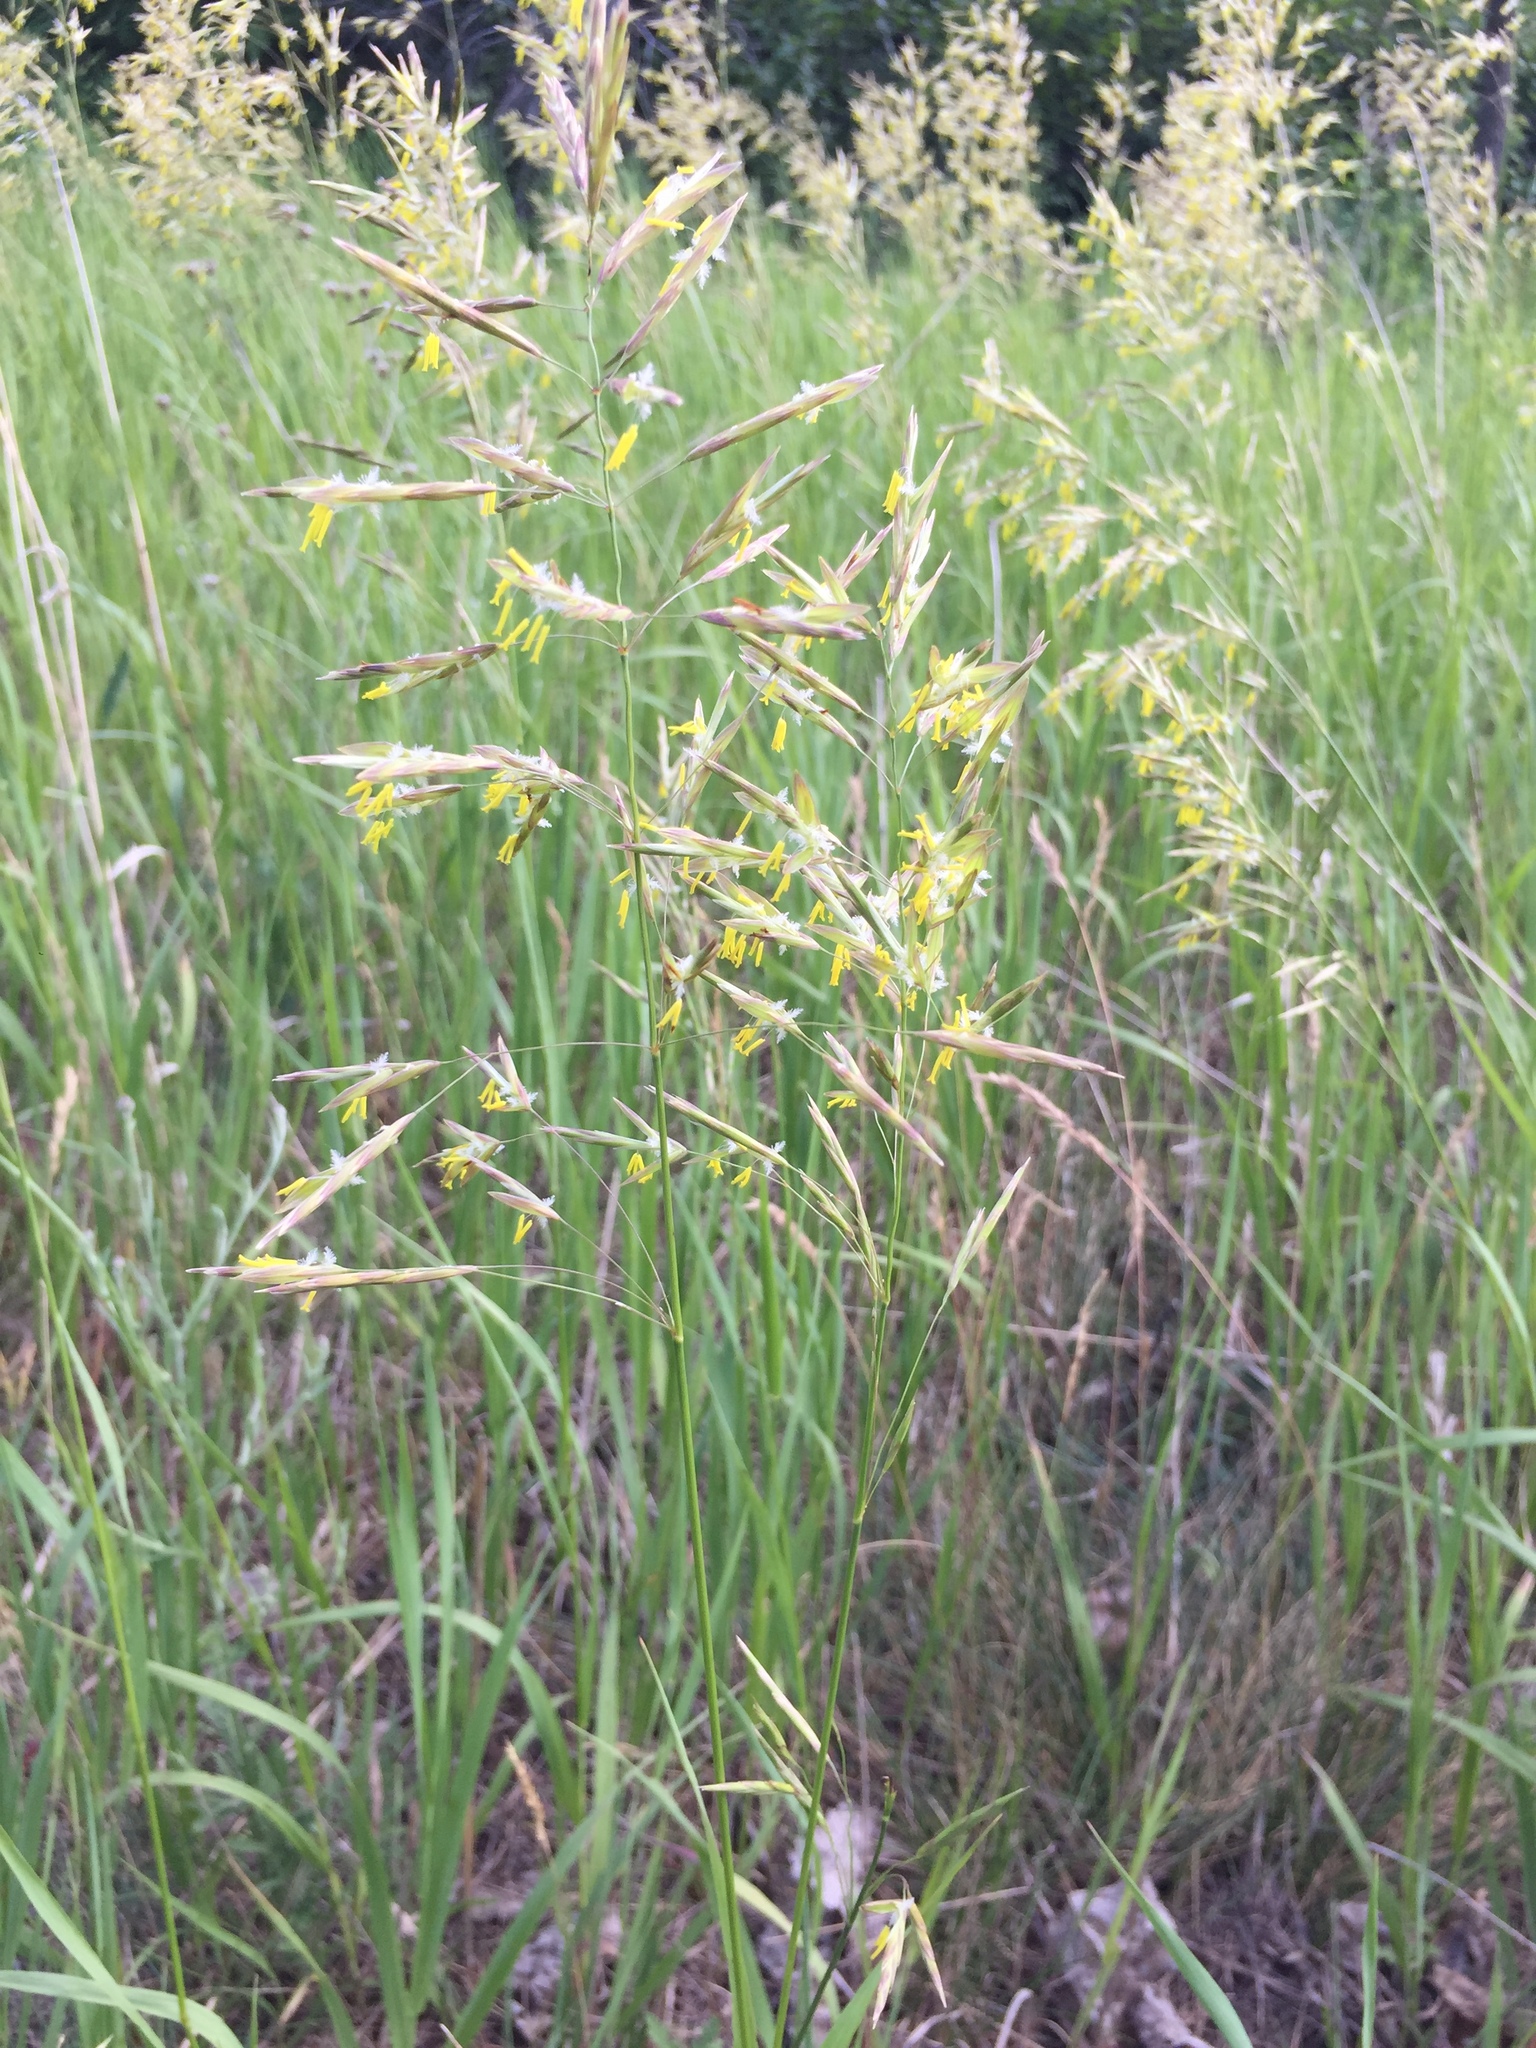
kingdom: Plantae
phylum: Tracheophyta
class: Liliopsida
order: Poales
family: Poaceae
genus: Bromus
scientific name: Bromus inermis
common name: Smooth brome
